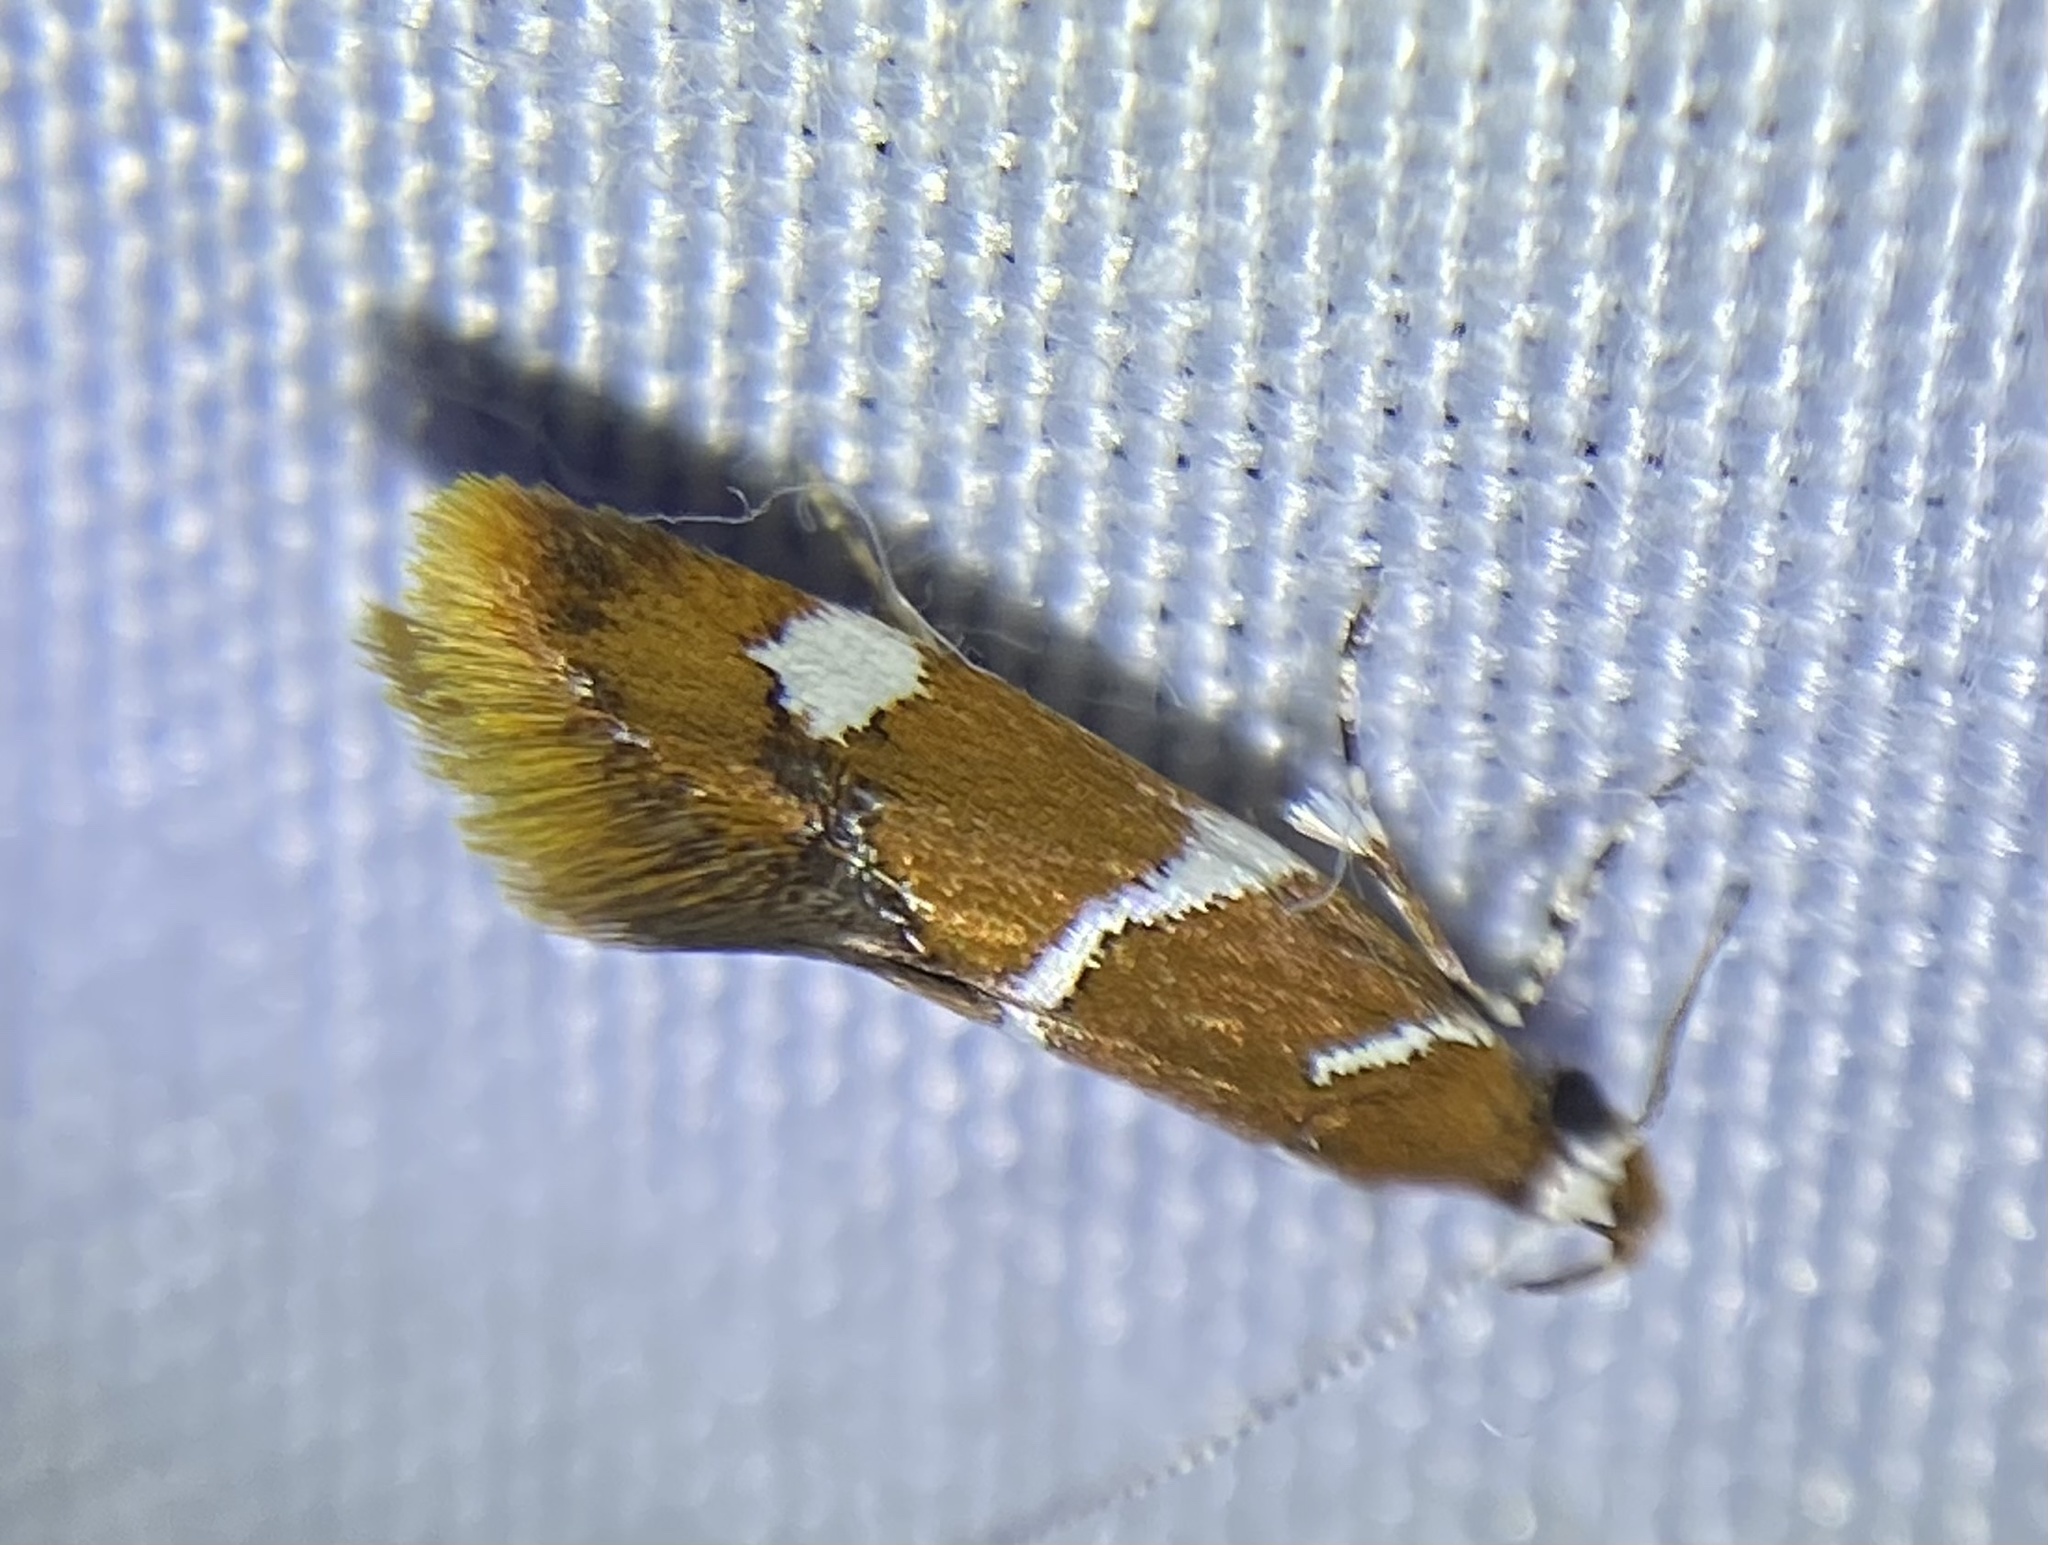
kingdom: Animalia
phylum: Arthropoda
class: Insecta
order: Lepidoptera
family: Oecophoridae
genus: Promalactis
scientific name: Promalactis suzukiella
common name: Moth
